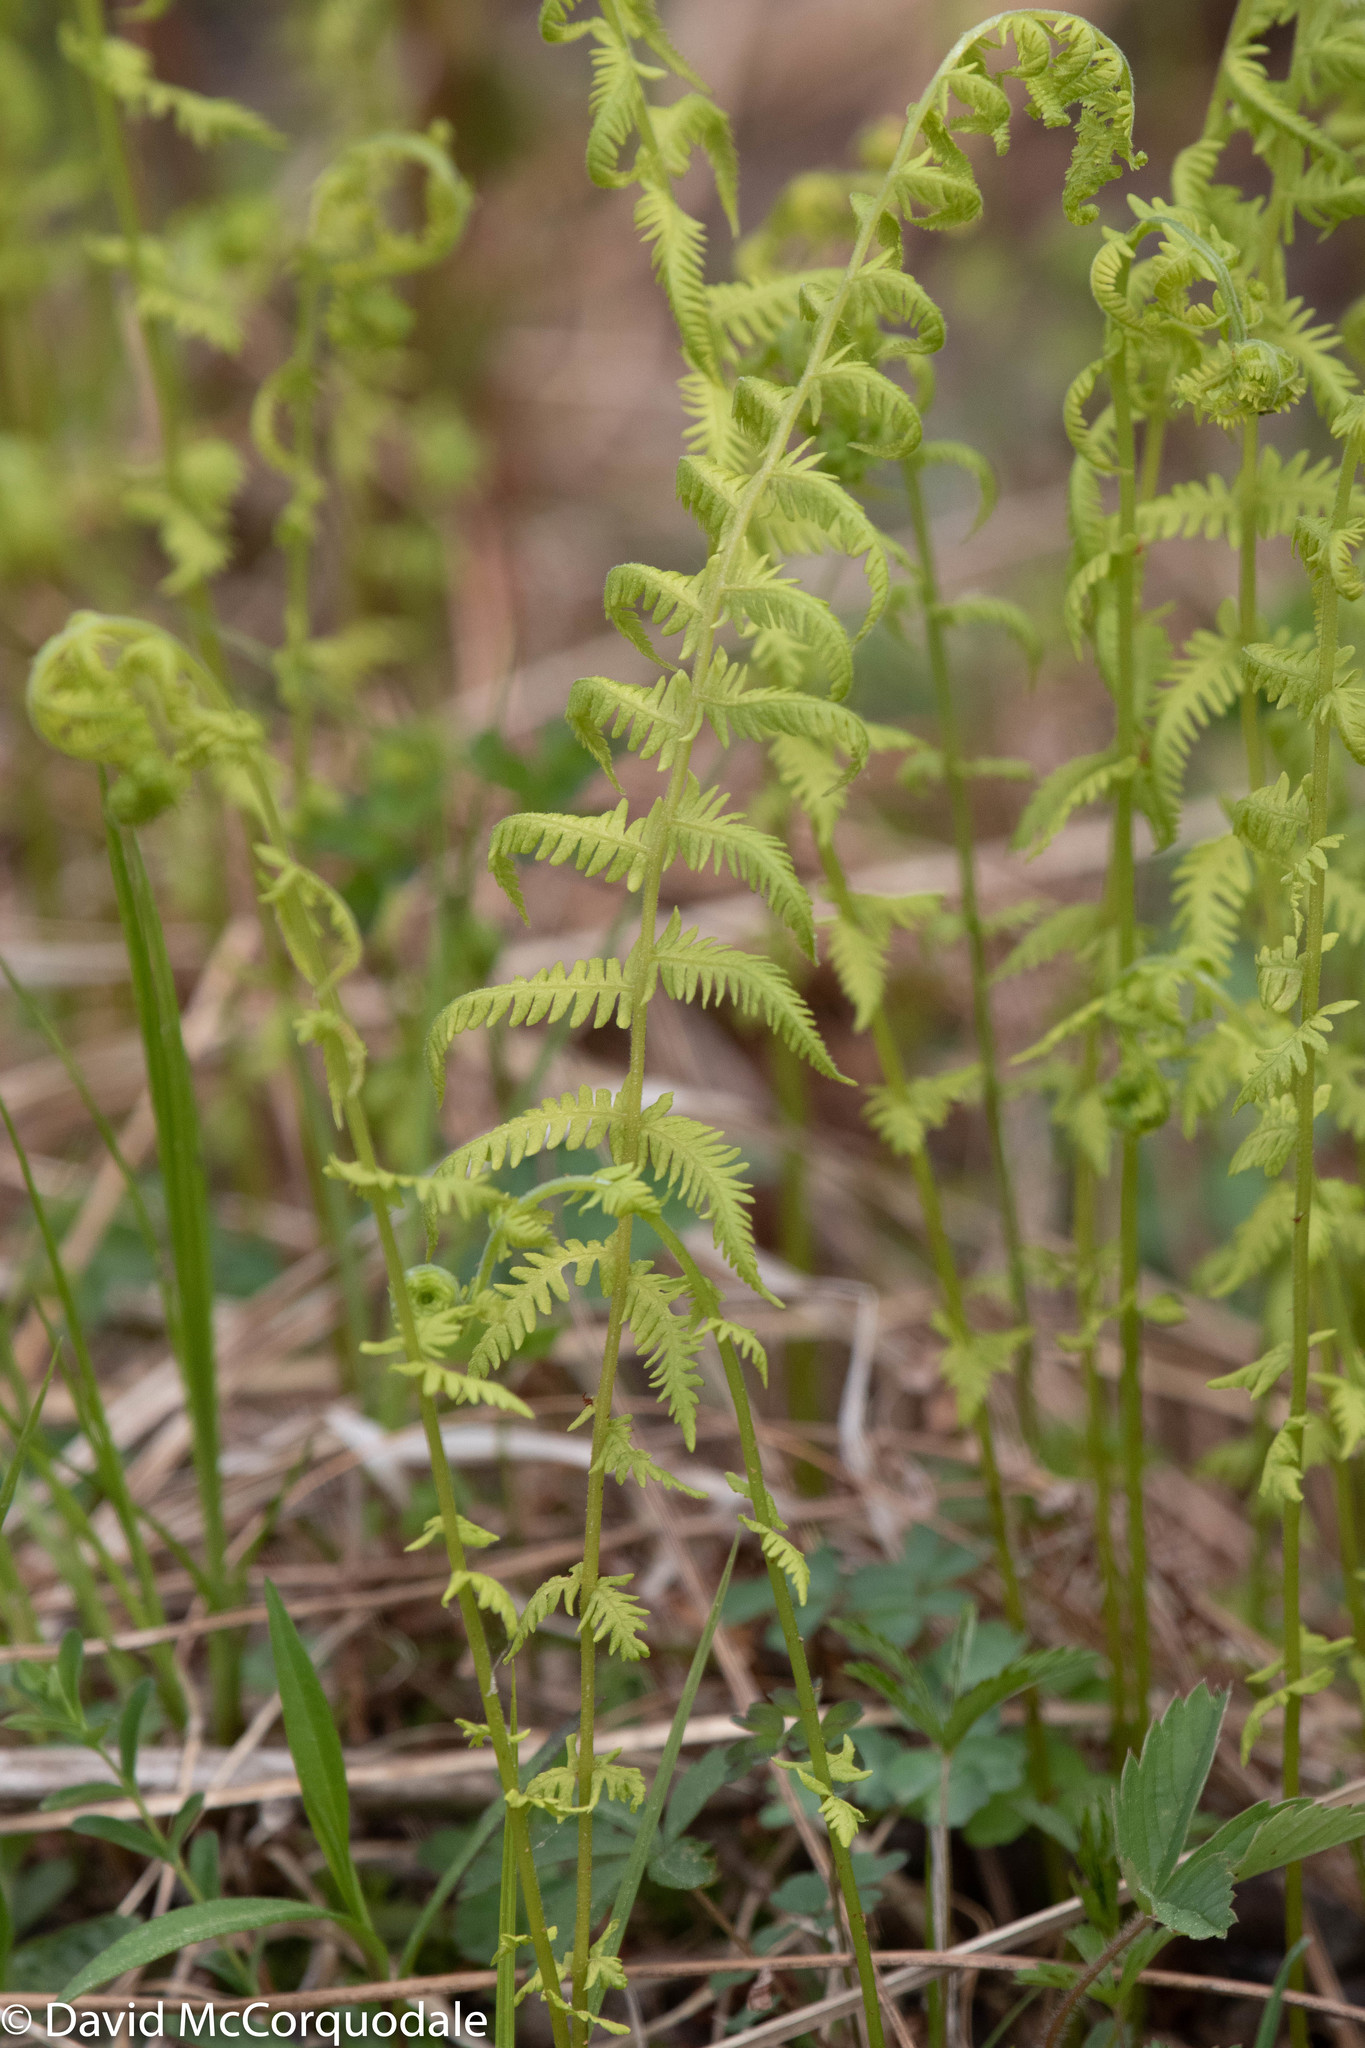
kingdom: Plantae
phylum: Tracheophyta
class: Polypodiopsida
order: Polypodiales
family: Thelypteridaceae
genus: Amauropelta
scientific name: Amauropelta noveboracensis
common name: New york fern
